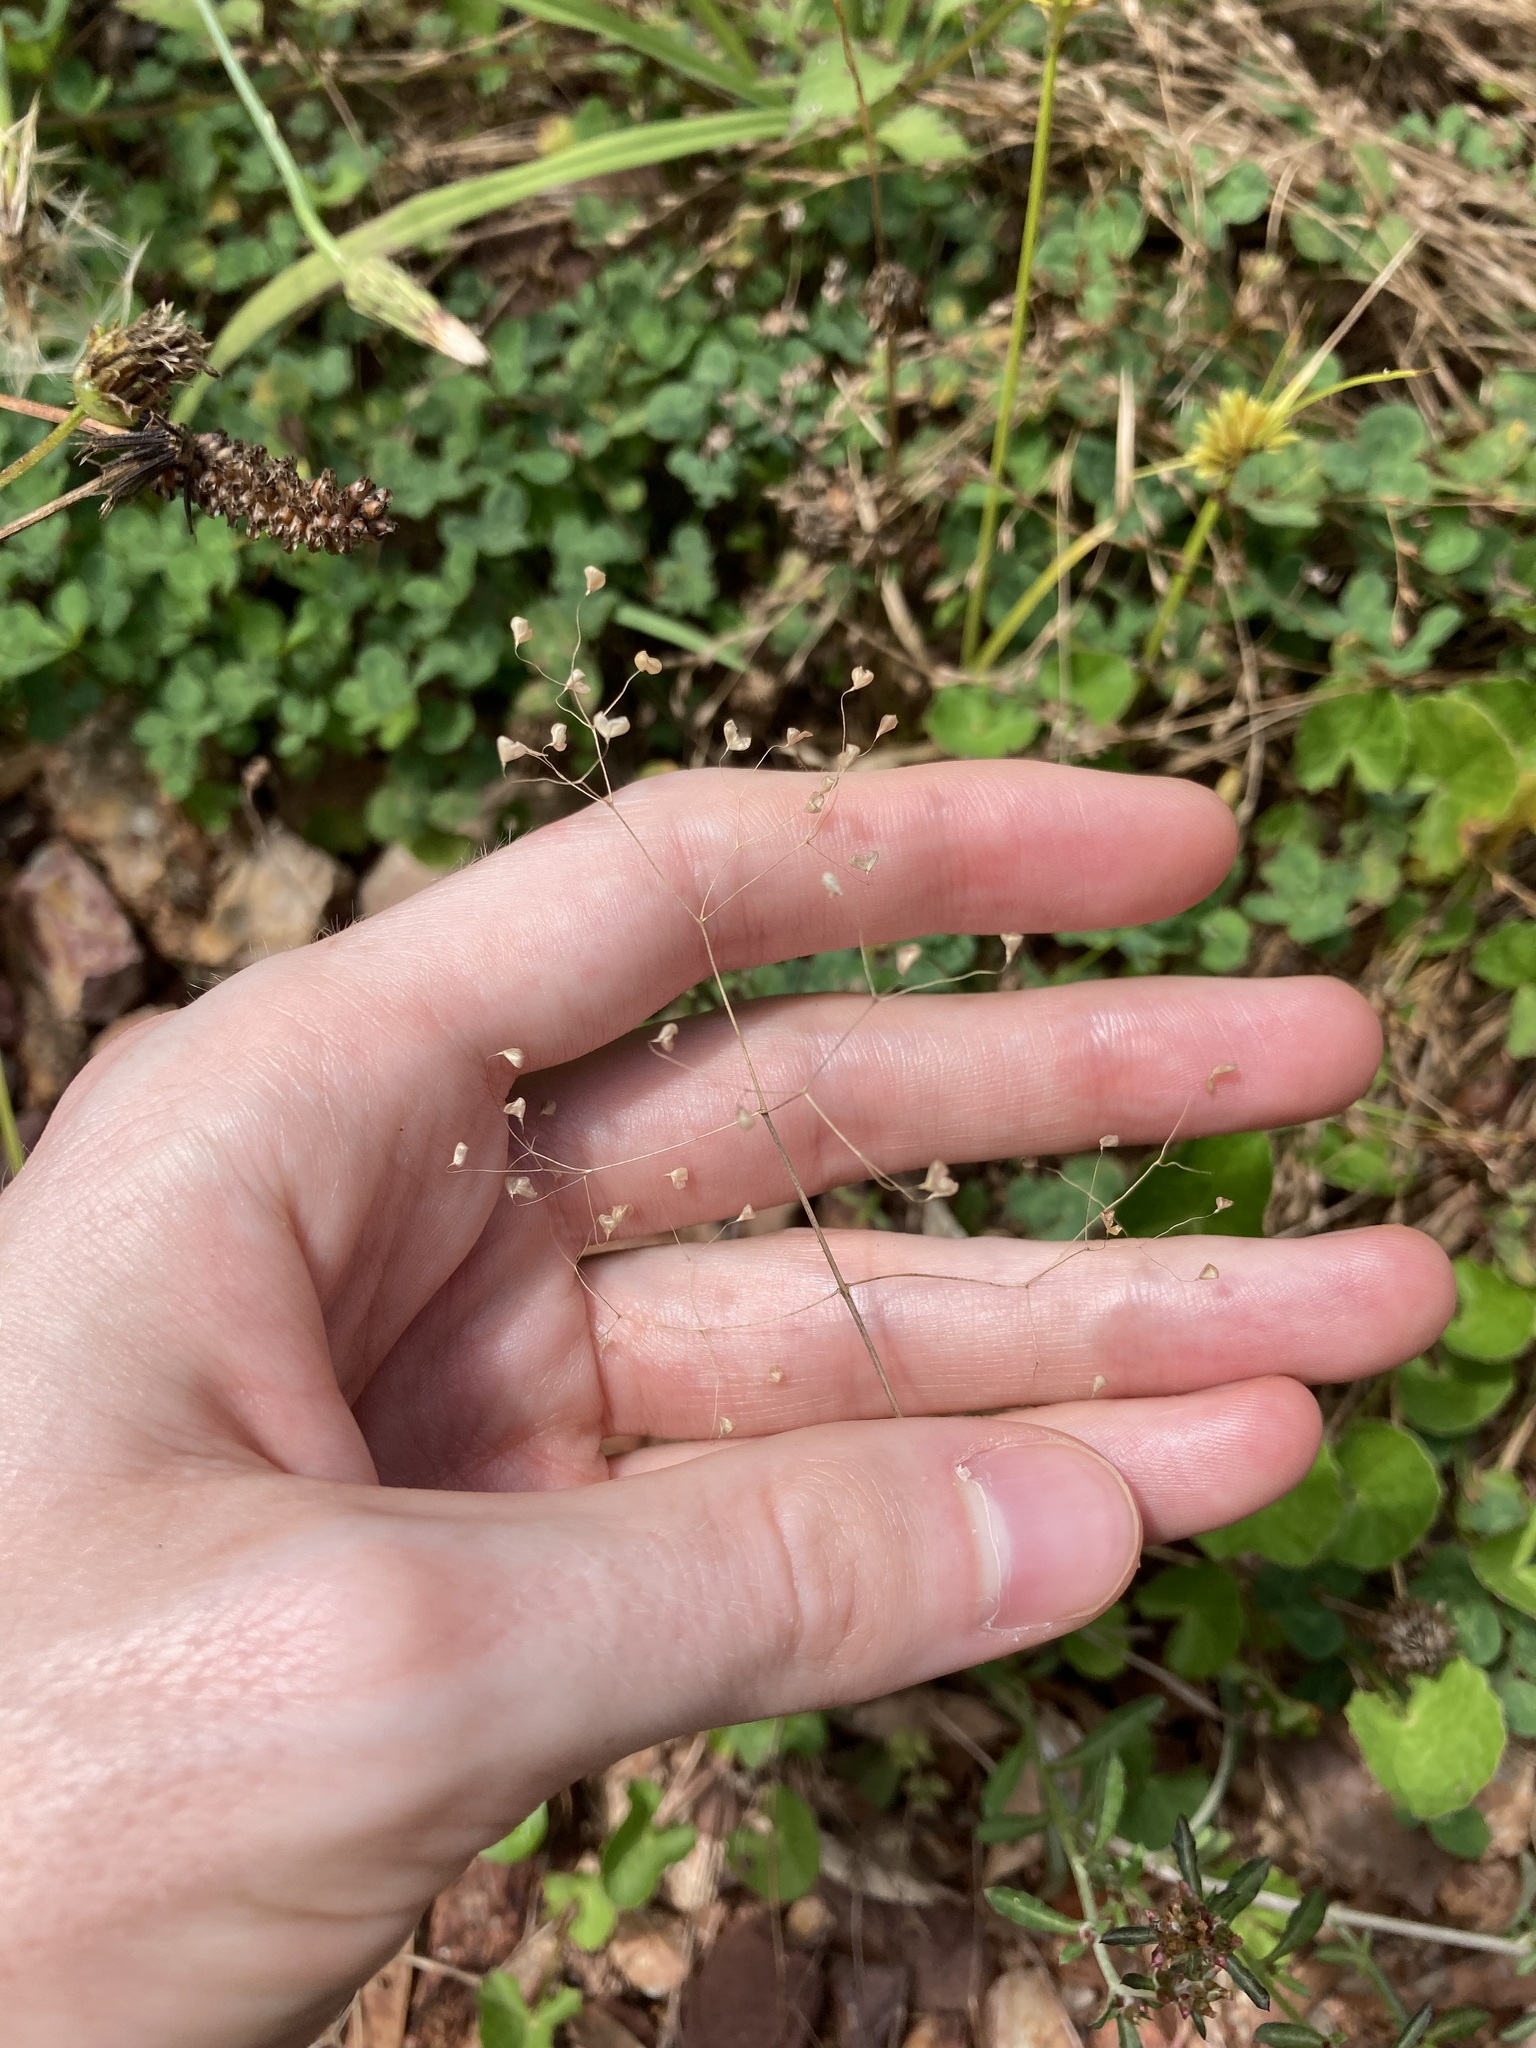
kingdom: Plantae
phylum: Tracheophyta
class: Liliopsida
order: Poales
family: Poaceae
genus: Briza
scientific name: Briza minor
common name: Lesser quaking-grass
